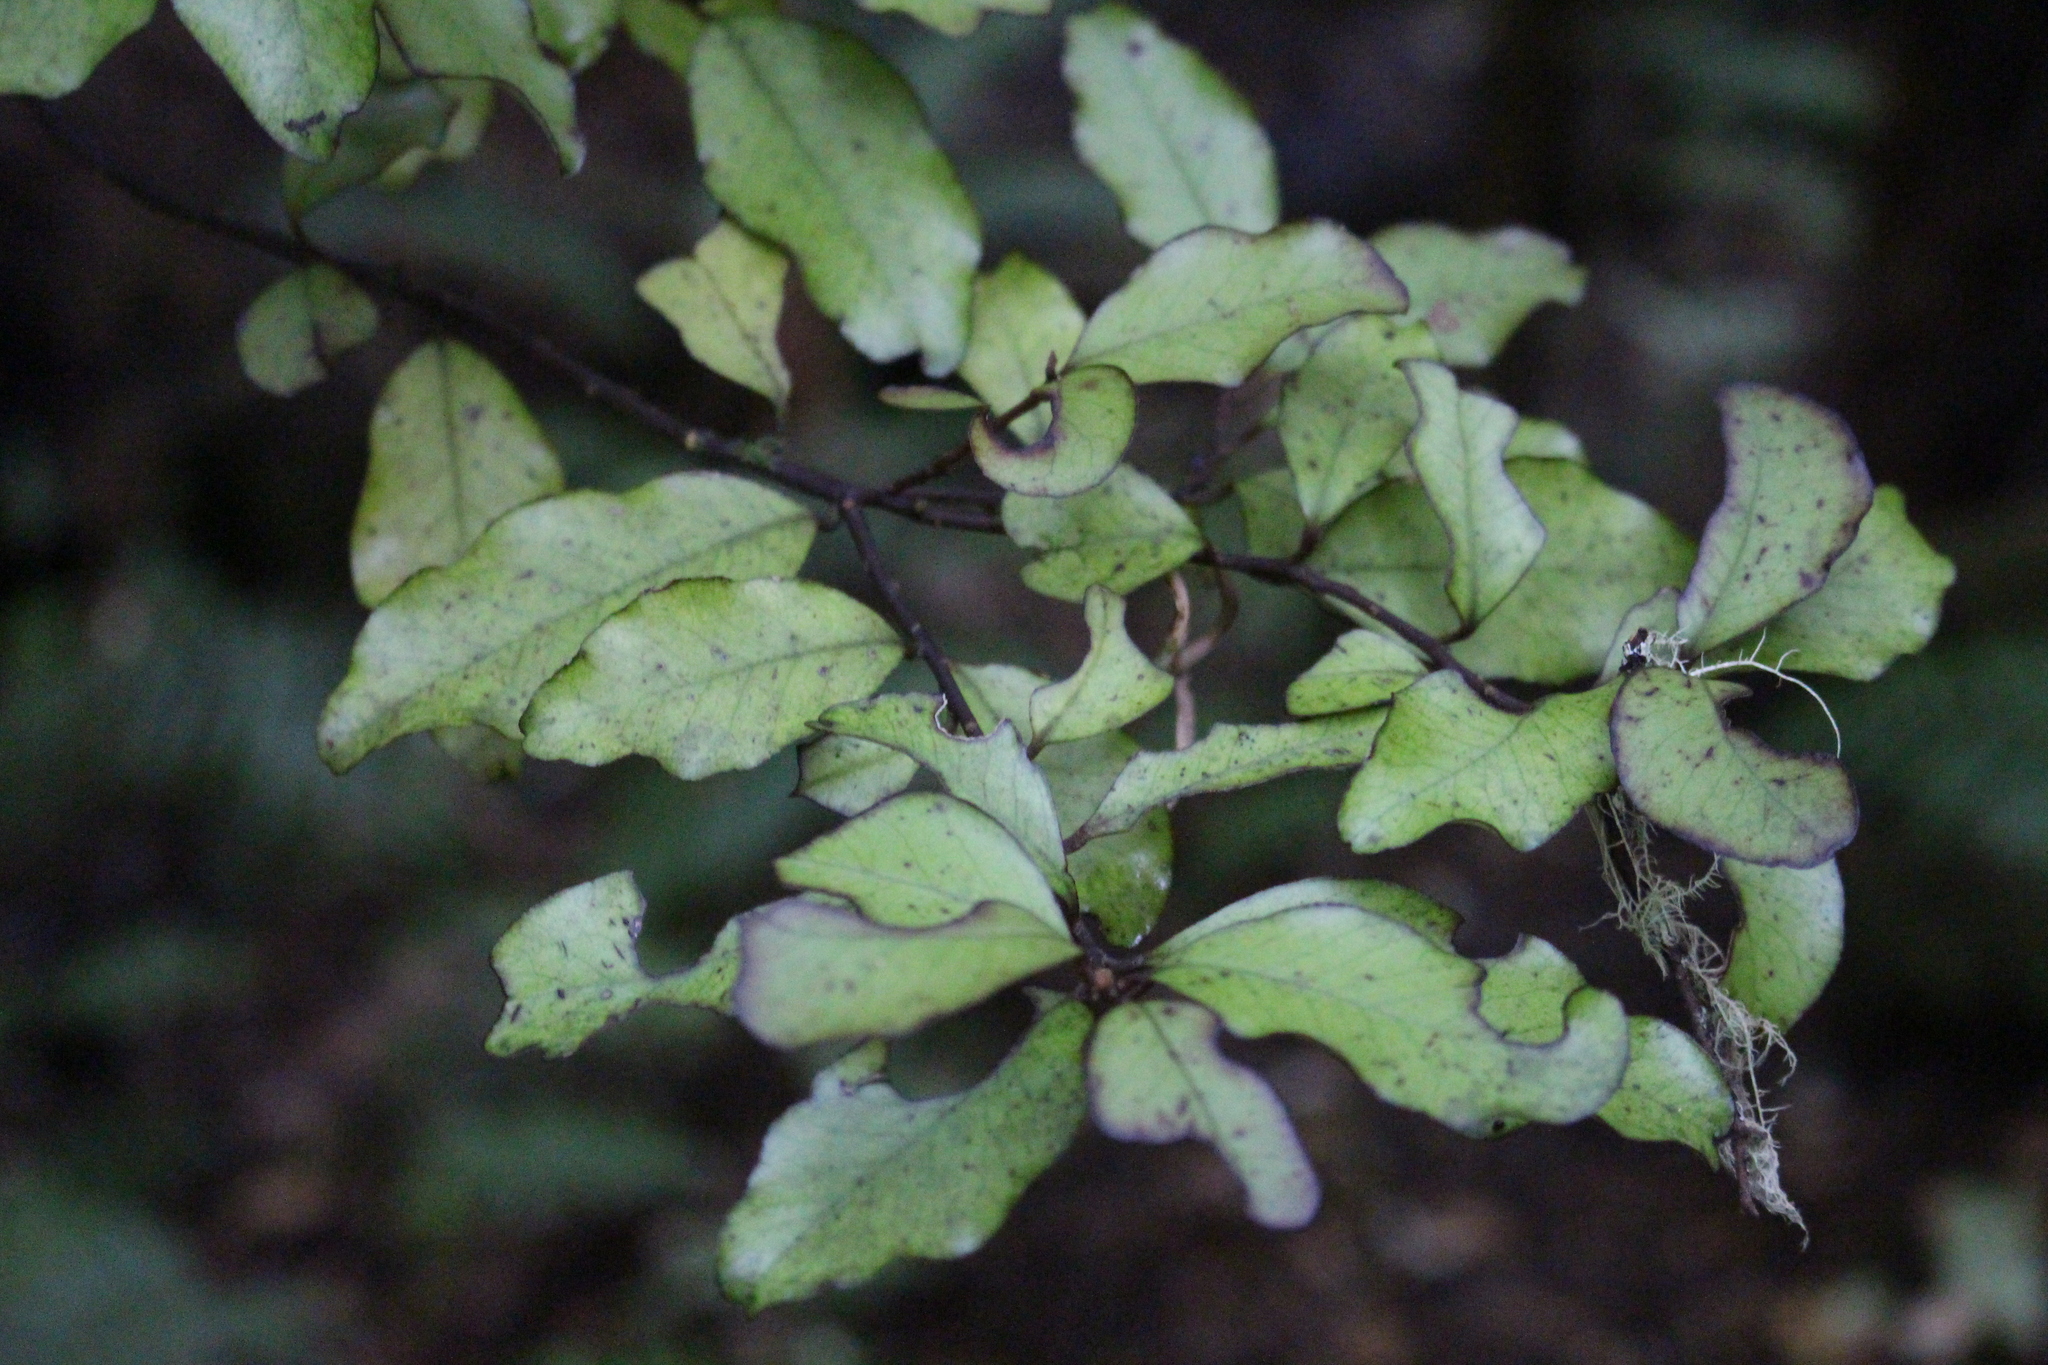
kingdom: Plantae
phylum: Tracheophyta
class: Magnoliopsida
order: Canellales
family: Winteraceae
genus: Pseudowintera
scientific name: Pseudowintera colorata
